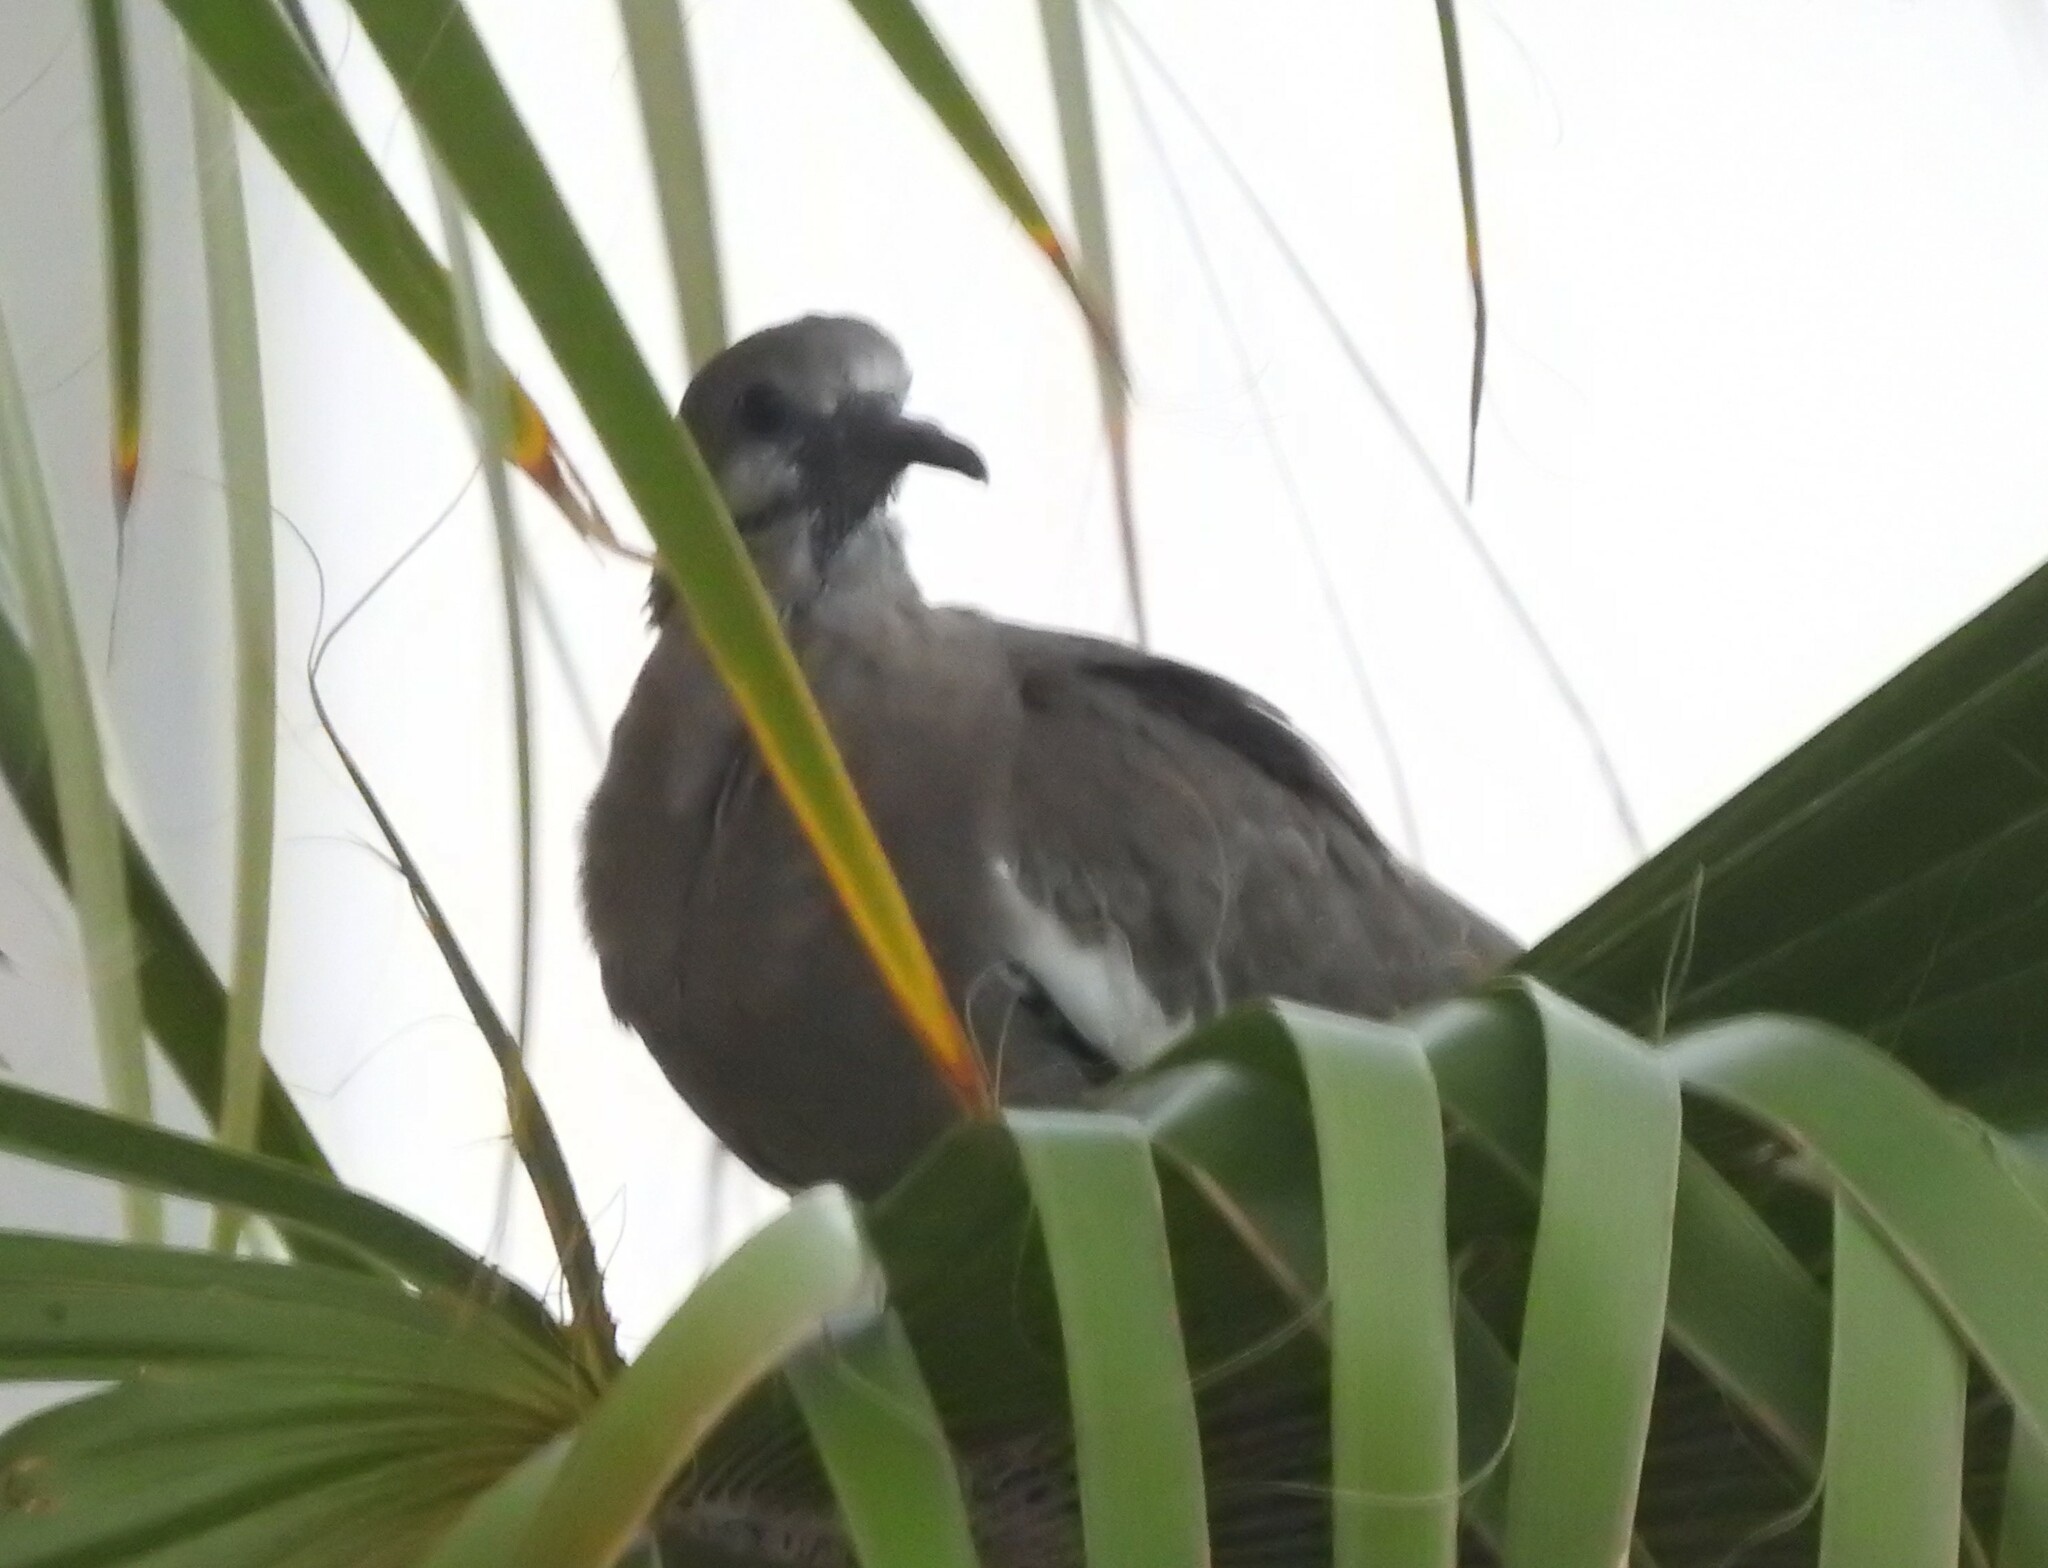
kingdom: Animalia
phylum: Chordata
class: Aves
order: Columbiformes
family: Columbidae
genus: Zenaida
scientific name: Zenaida asiatica
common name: White-winged dove
